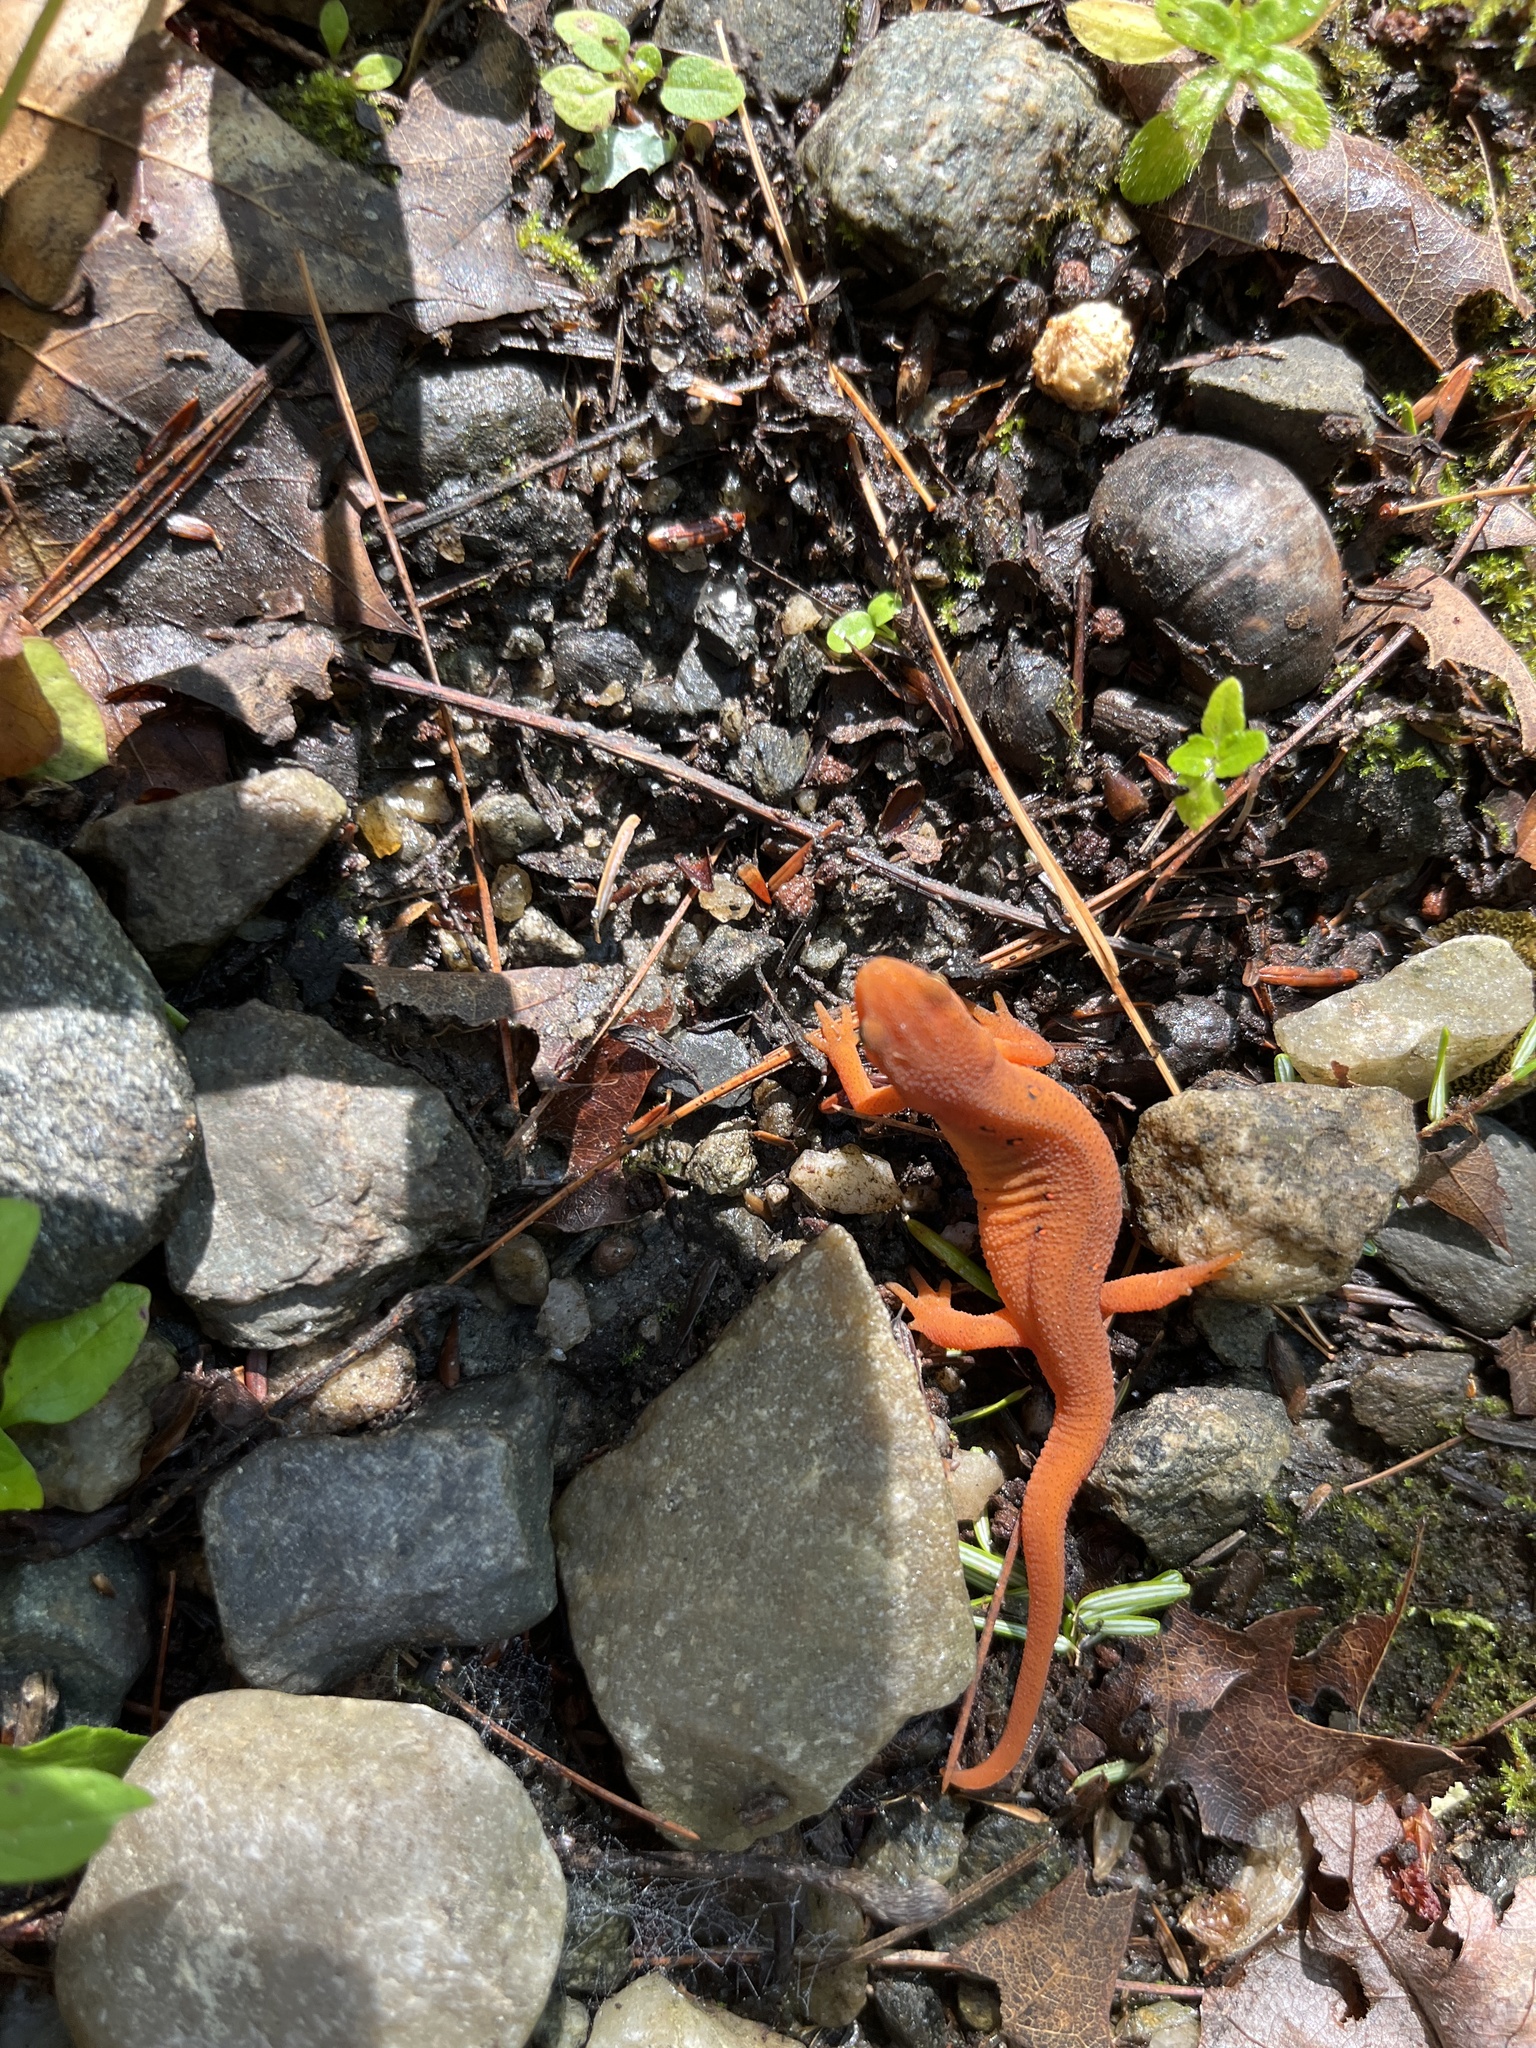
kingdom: Animalia
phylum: Chordata
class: Amphibia
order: Caudata
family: Salamandridae
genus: Notophthalmus
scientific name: Notophthalmus viridescens
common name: Eastern newt
